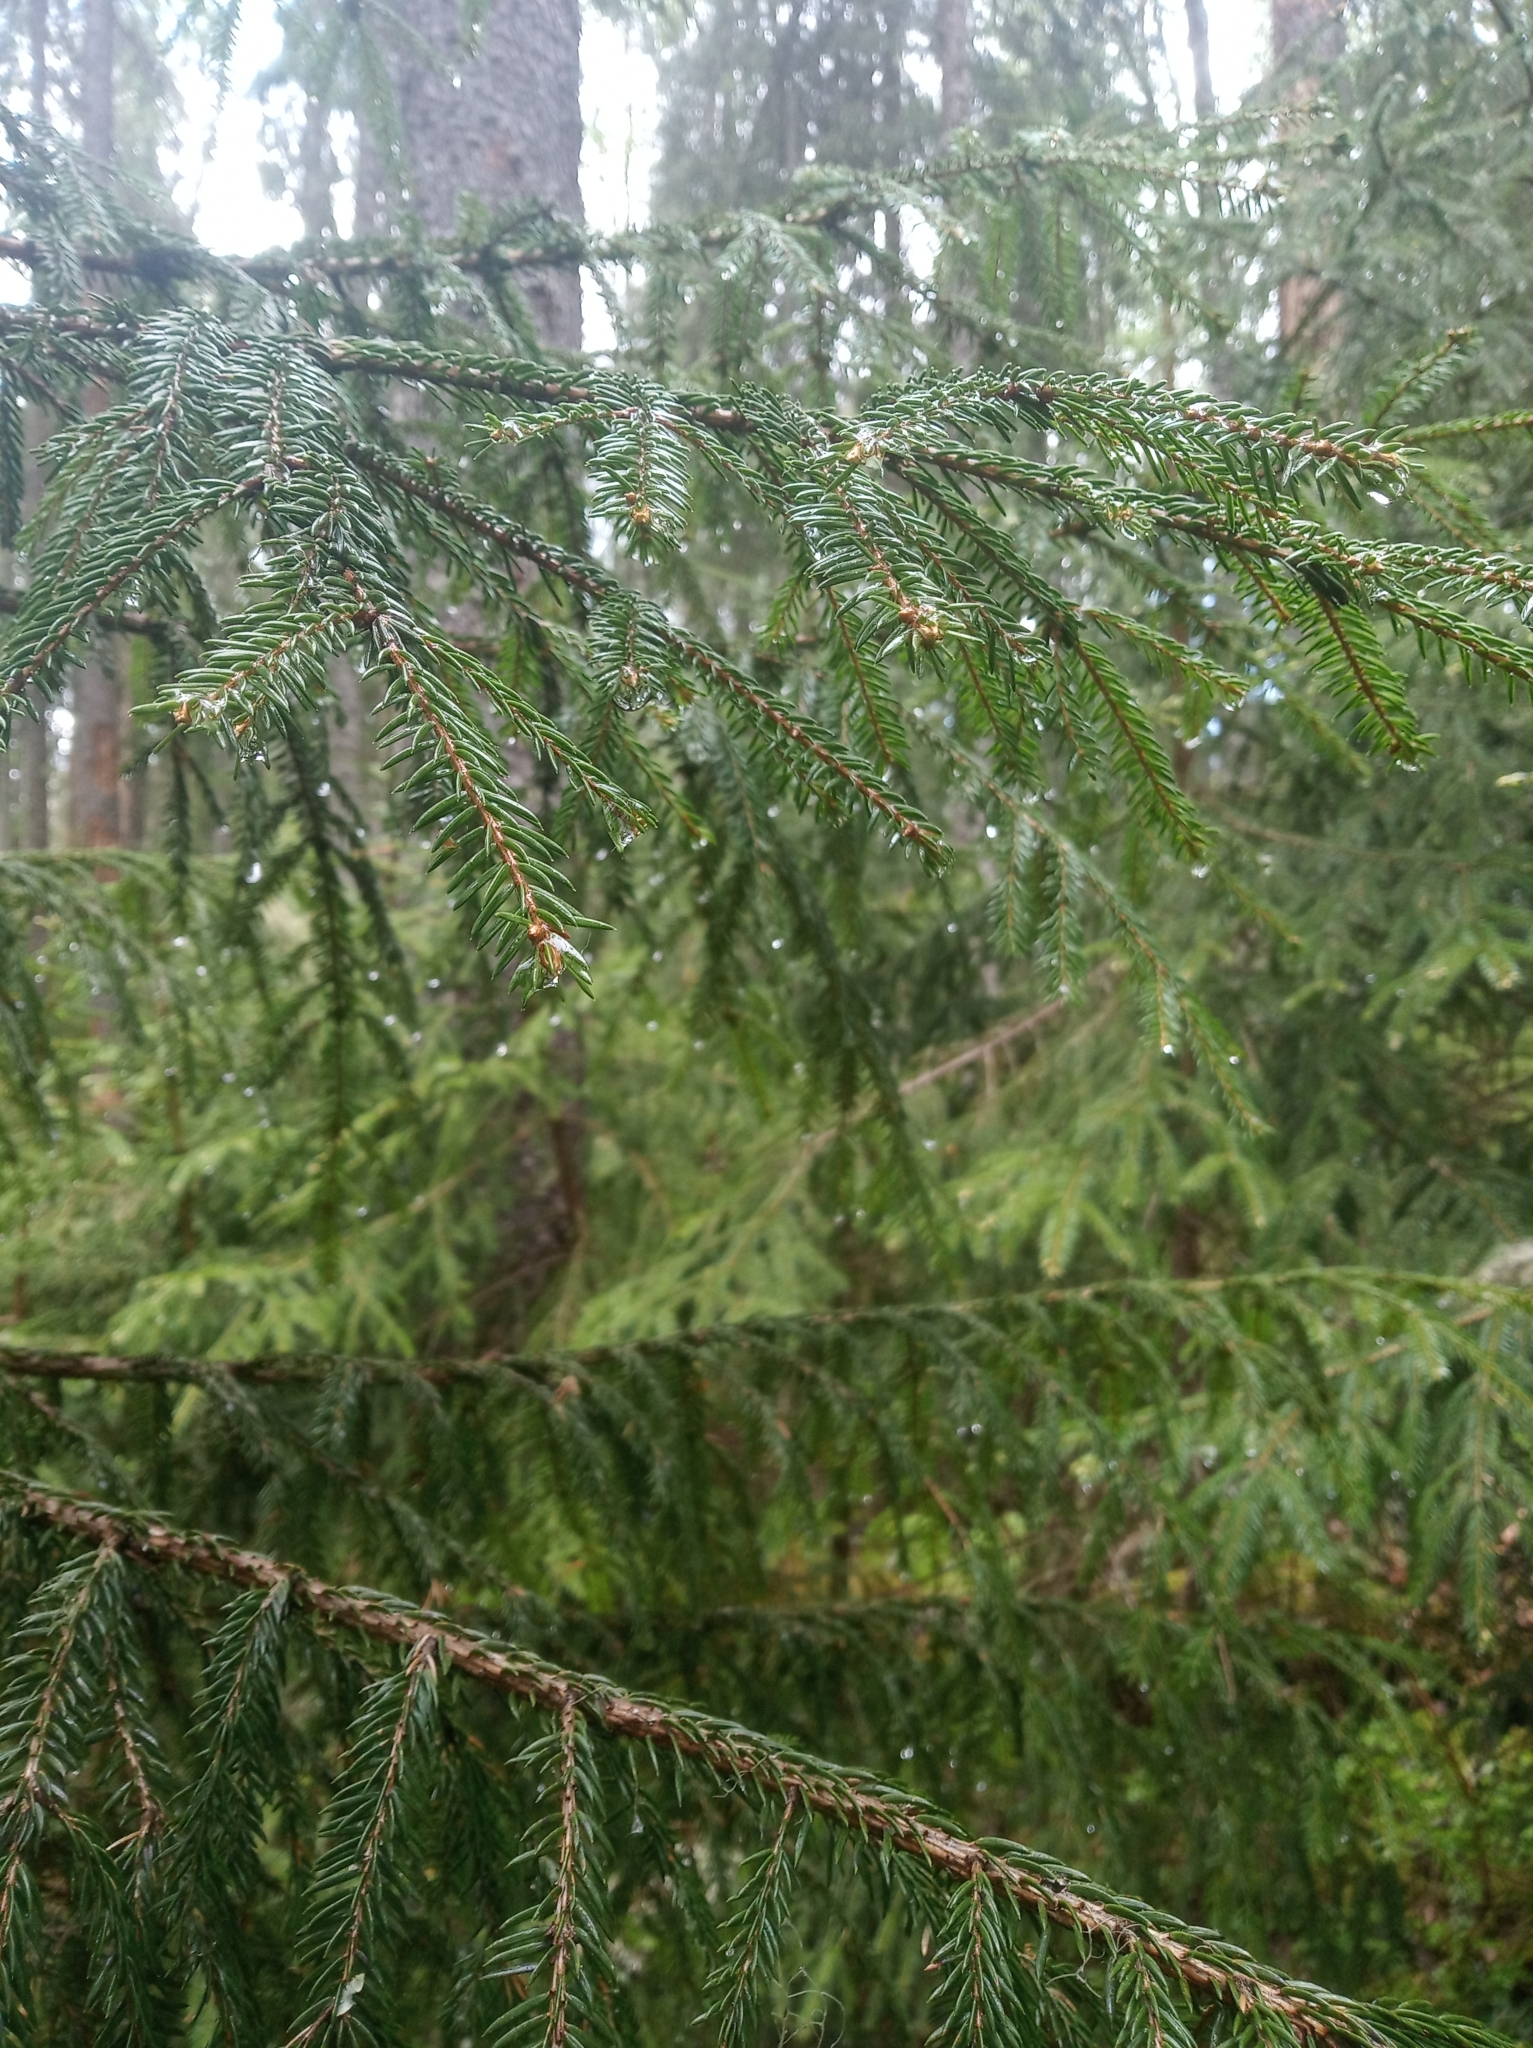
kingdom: Plantae
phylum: Tracheophyta
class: Pinopsida
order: Pinales
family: Pinaceae
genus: Picea
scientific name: Picea abies
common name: Norway spruce
